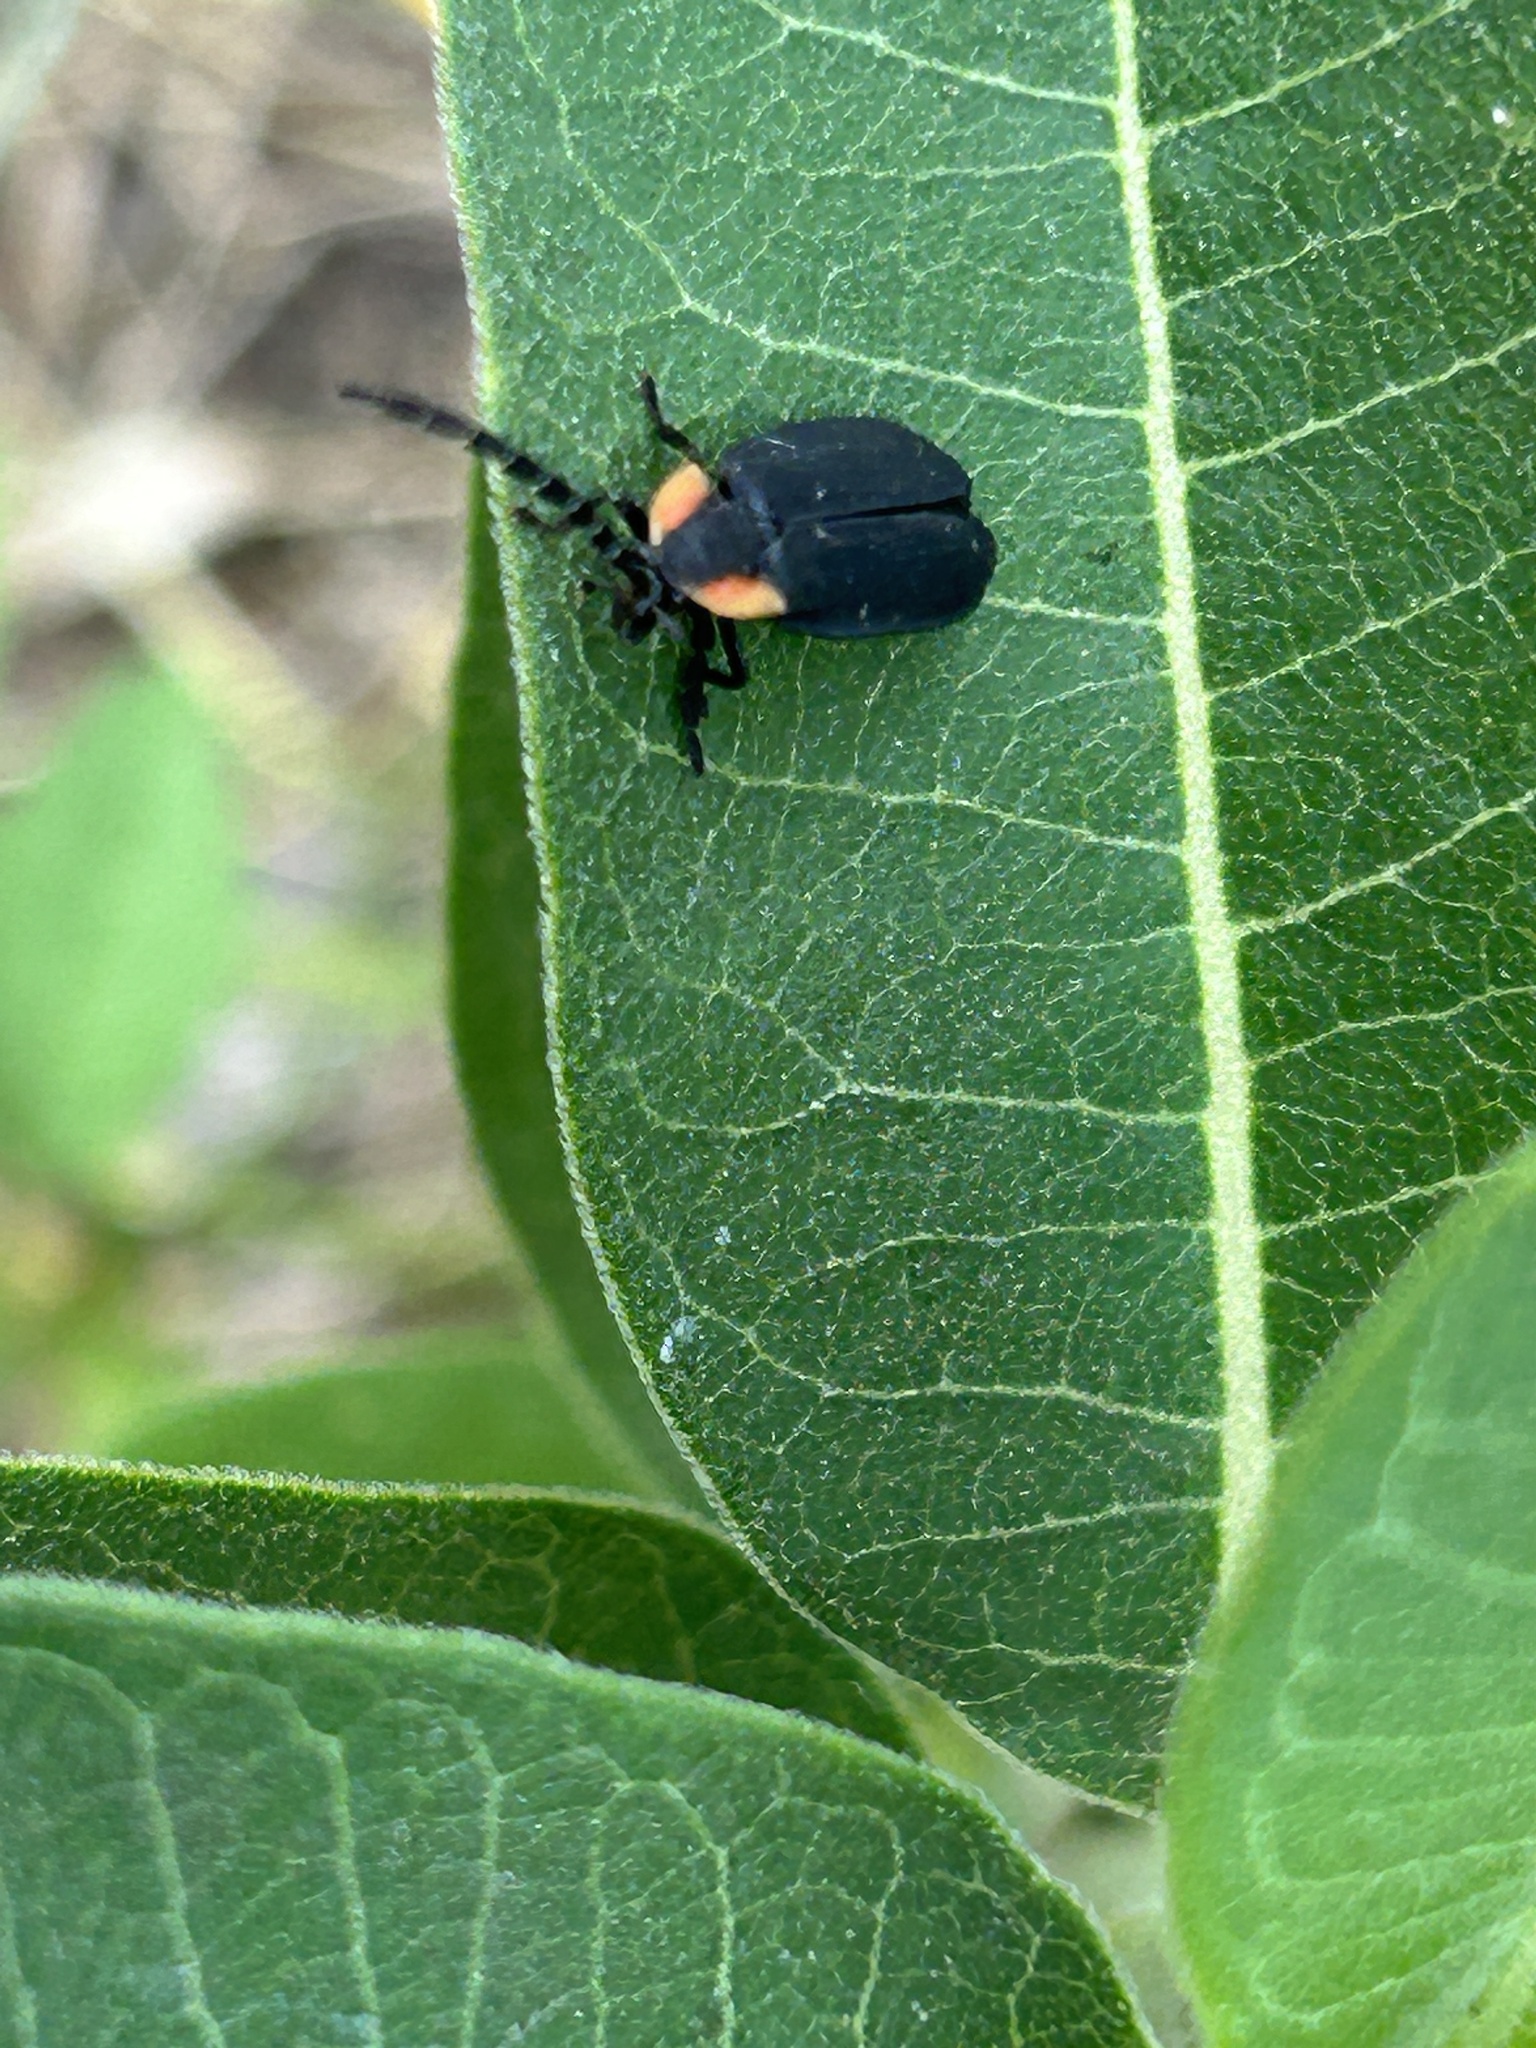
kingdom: Animalia
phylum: Arthropoda
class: Insecta
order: Coleoptera
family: Lampyridae
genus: Lucidota
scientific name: Lucidota atra
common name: Black firefly
